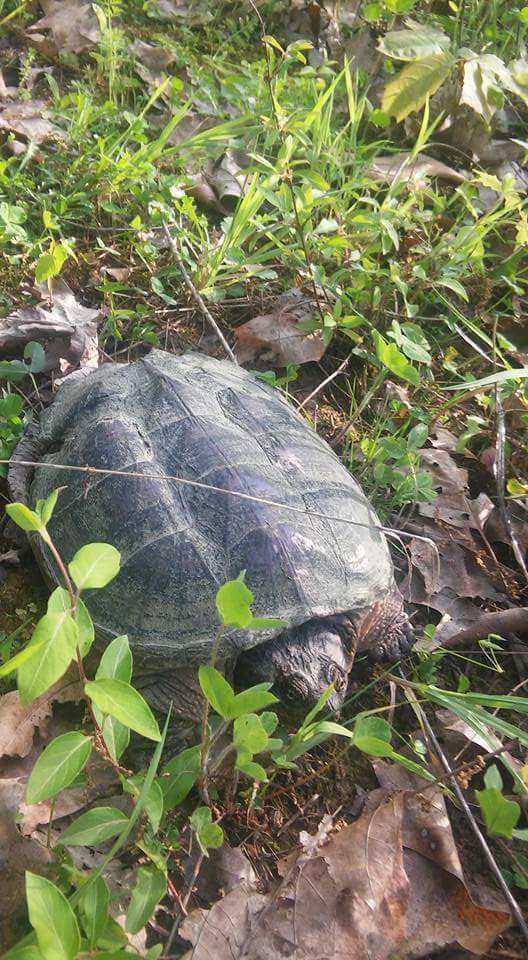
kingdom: Animalia
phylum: Chordata
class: Testudines
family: Chelydridae
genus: Chelydra
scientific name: Chelydra serpentina
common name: Common snapping turtle
